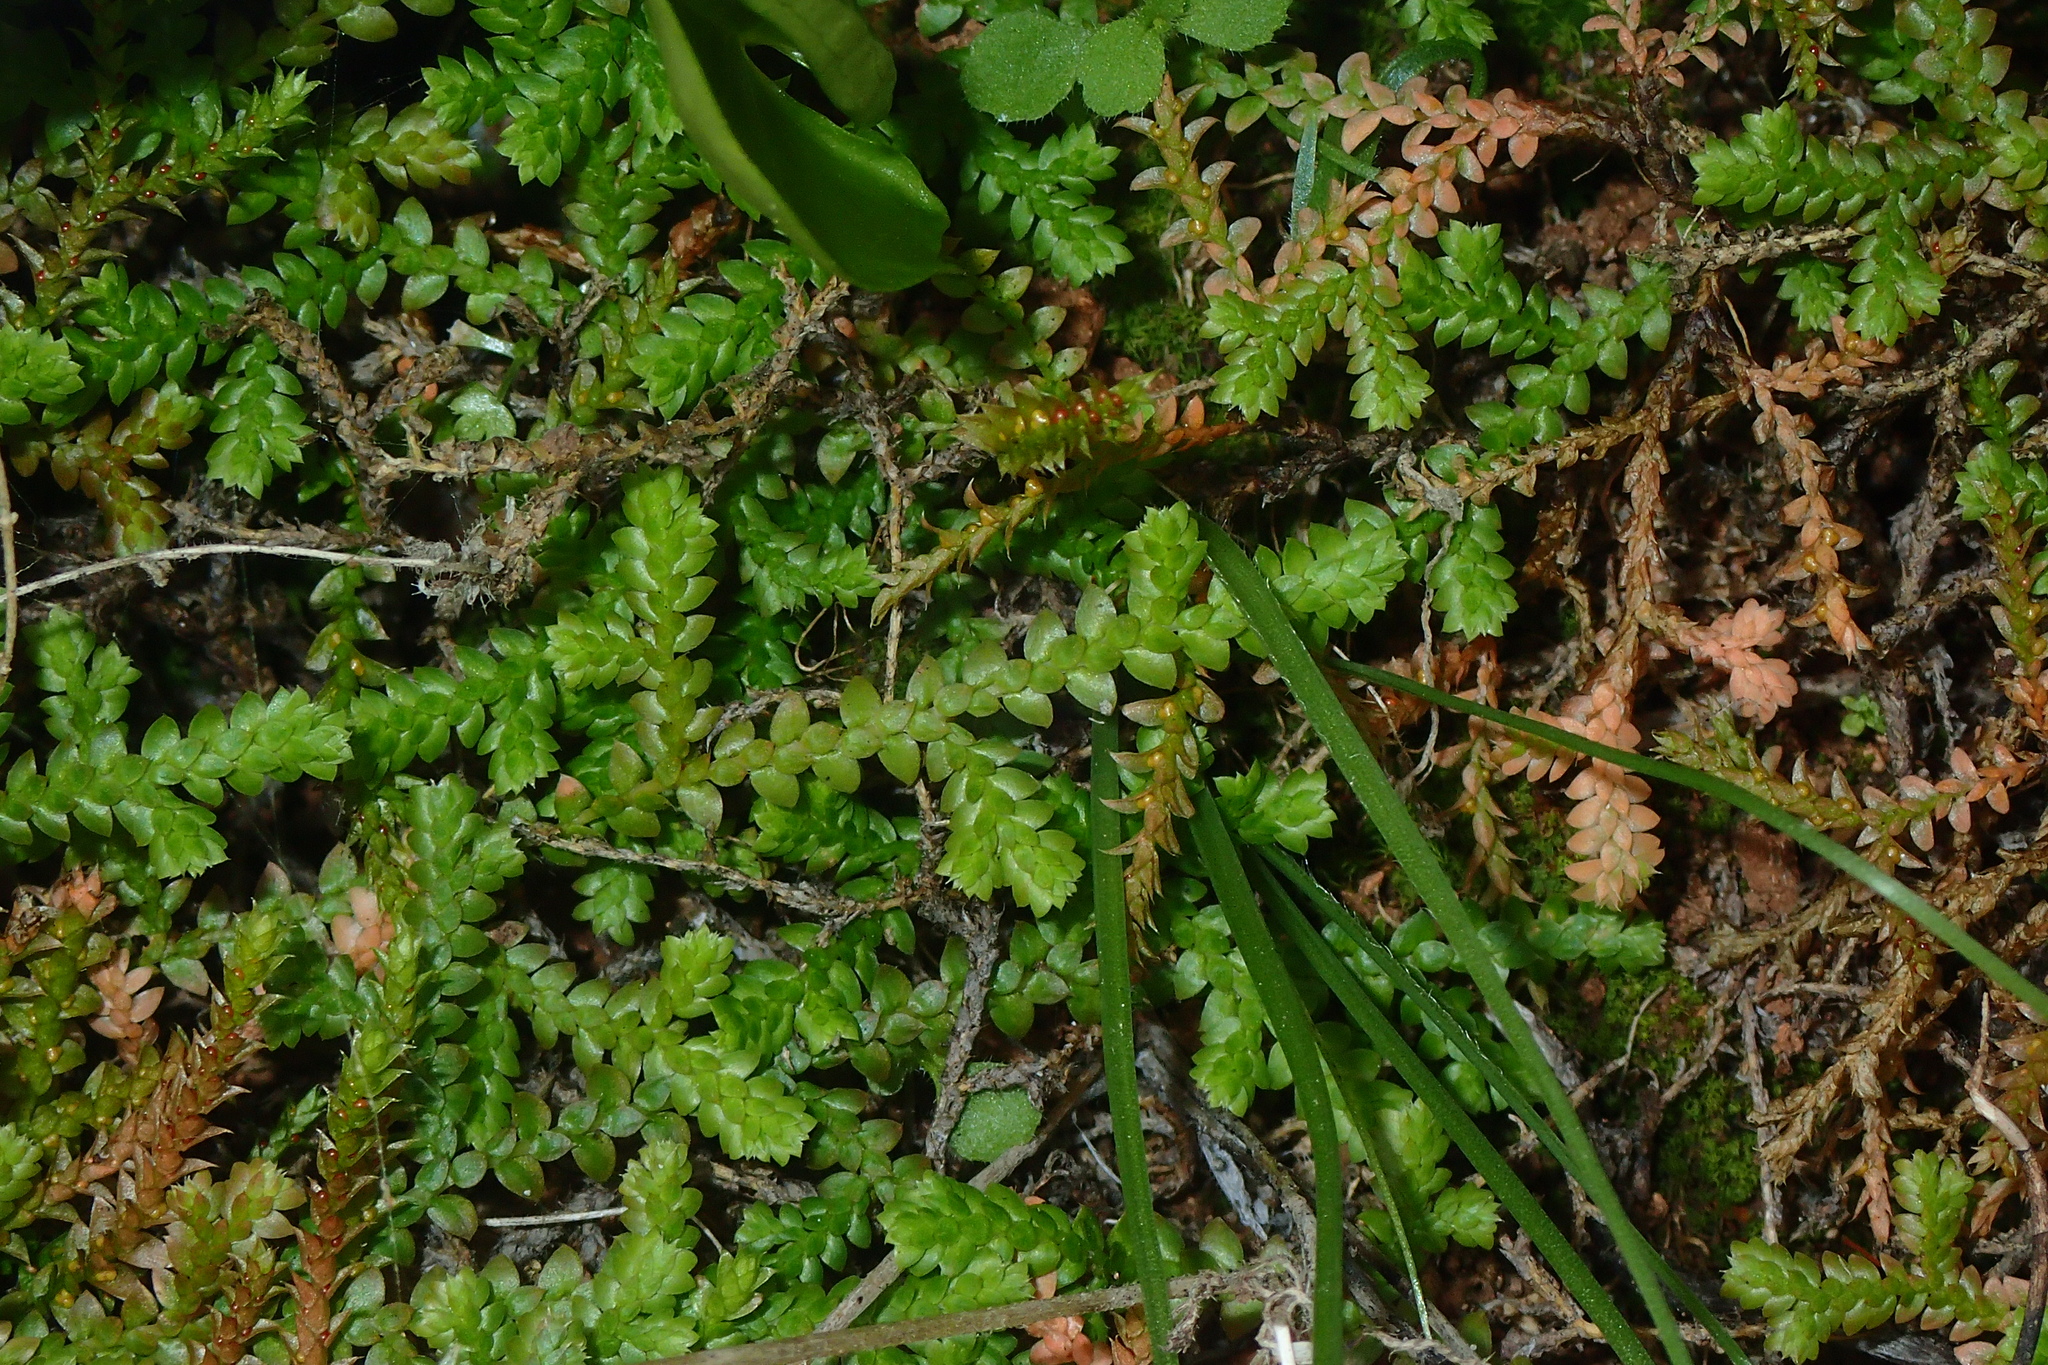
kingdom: Plantae
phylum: Tracheophyta
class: Lycopodiopsida
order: Selaginellales
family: Selaginellaceae
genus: Selaginella
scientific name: Selaginella denticulata
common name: Toothed-leaved clubmoss
